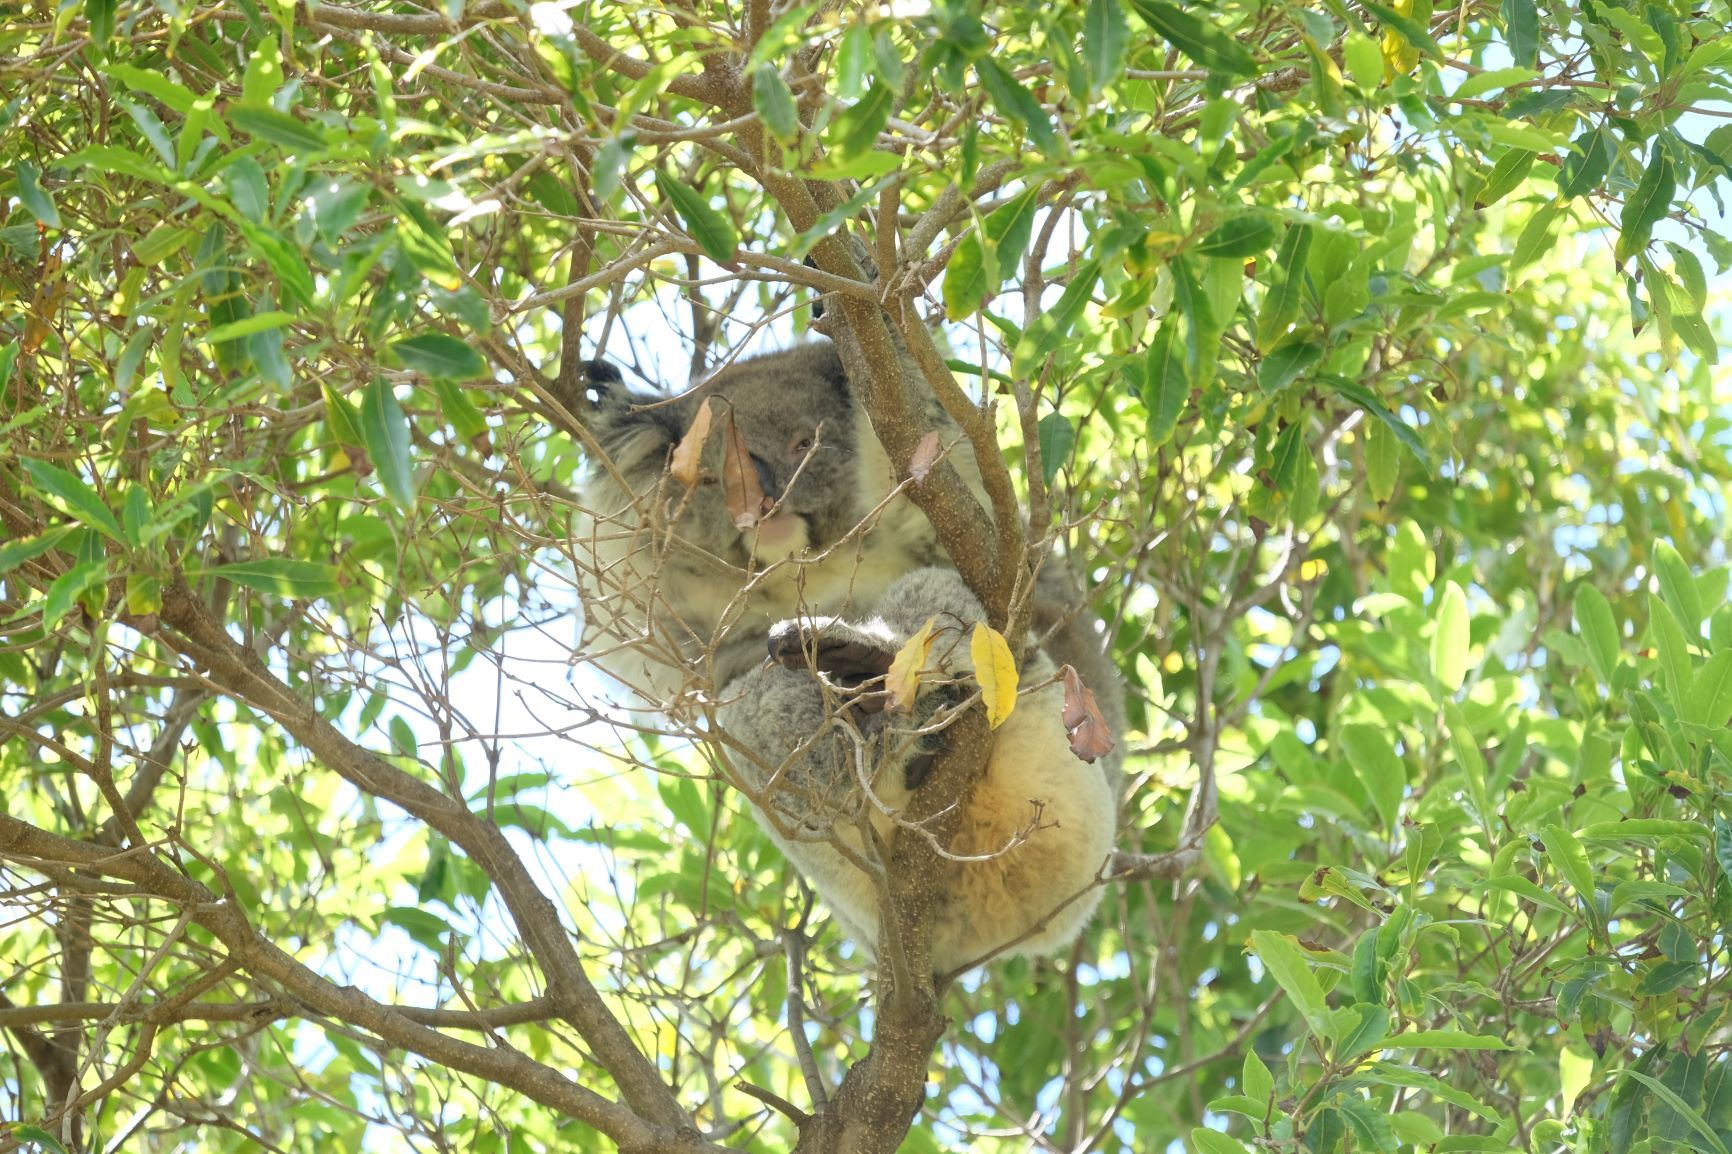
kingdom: Animalia
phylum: Chordata
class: Mammalia
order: Diprotodontia
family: Phascolarctidae
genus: Phascolarctos
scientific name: Phascolarctos cinereus
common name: Koala
